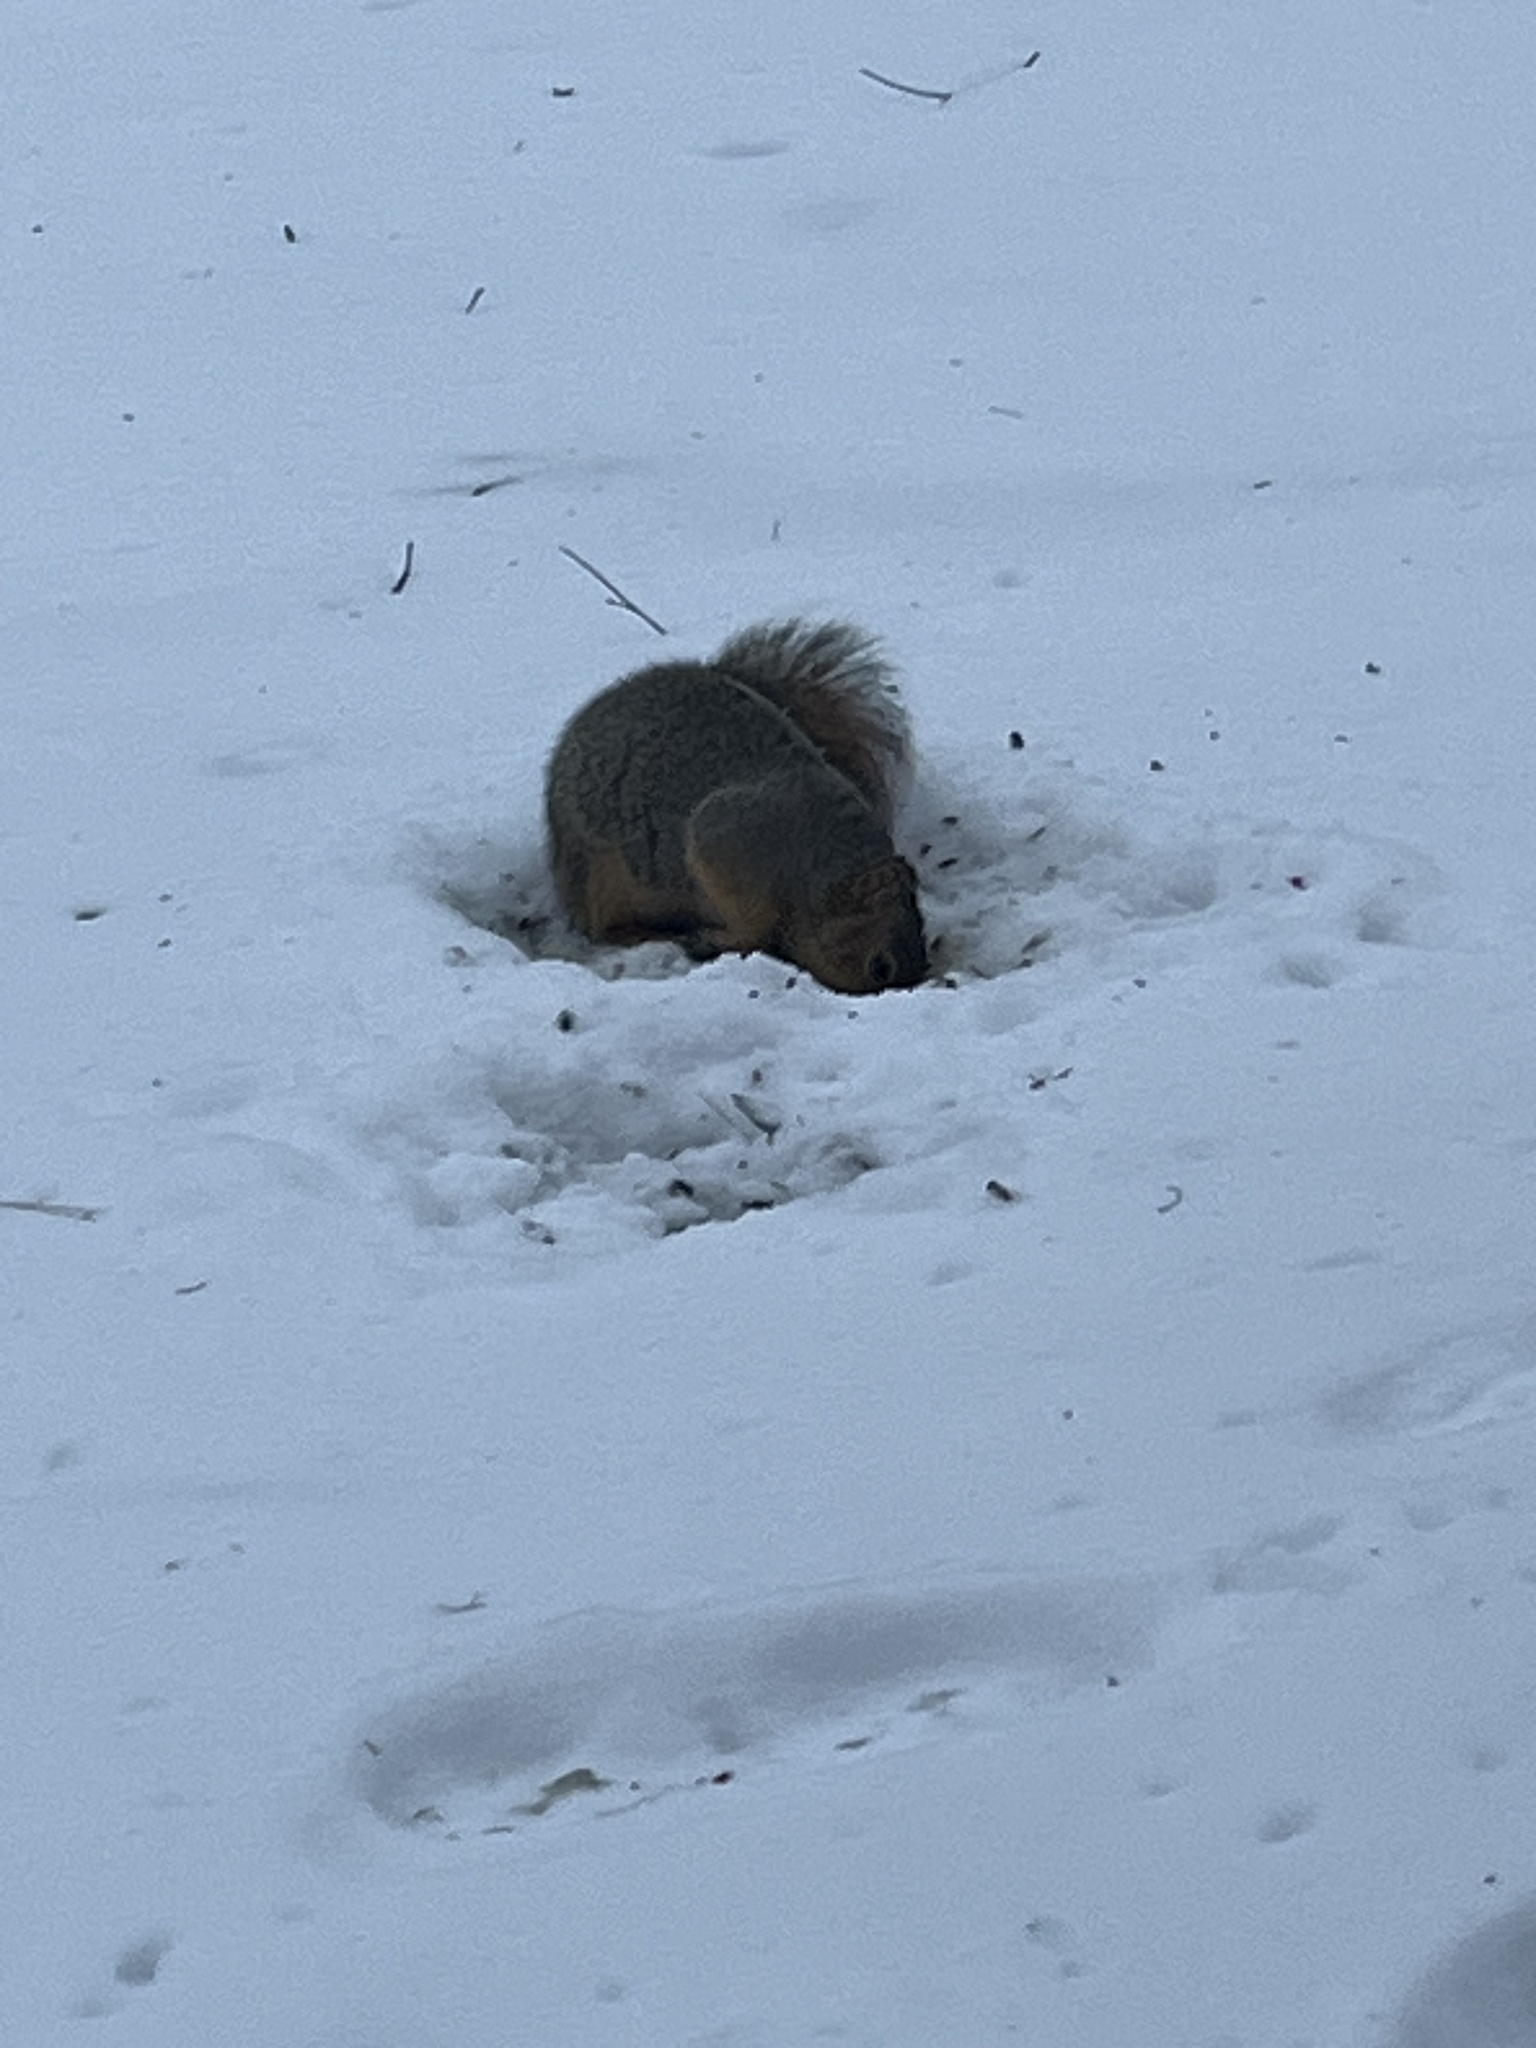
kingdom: Animalia
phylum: Chordata
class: Mammalia
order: Rodentia
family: Sciuridae
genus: Sciurus
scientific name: Sciurus niger
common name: Fox squirrel
